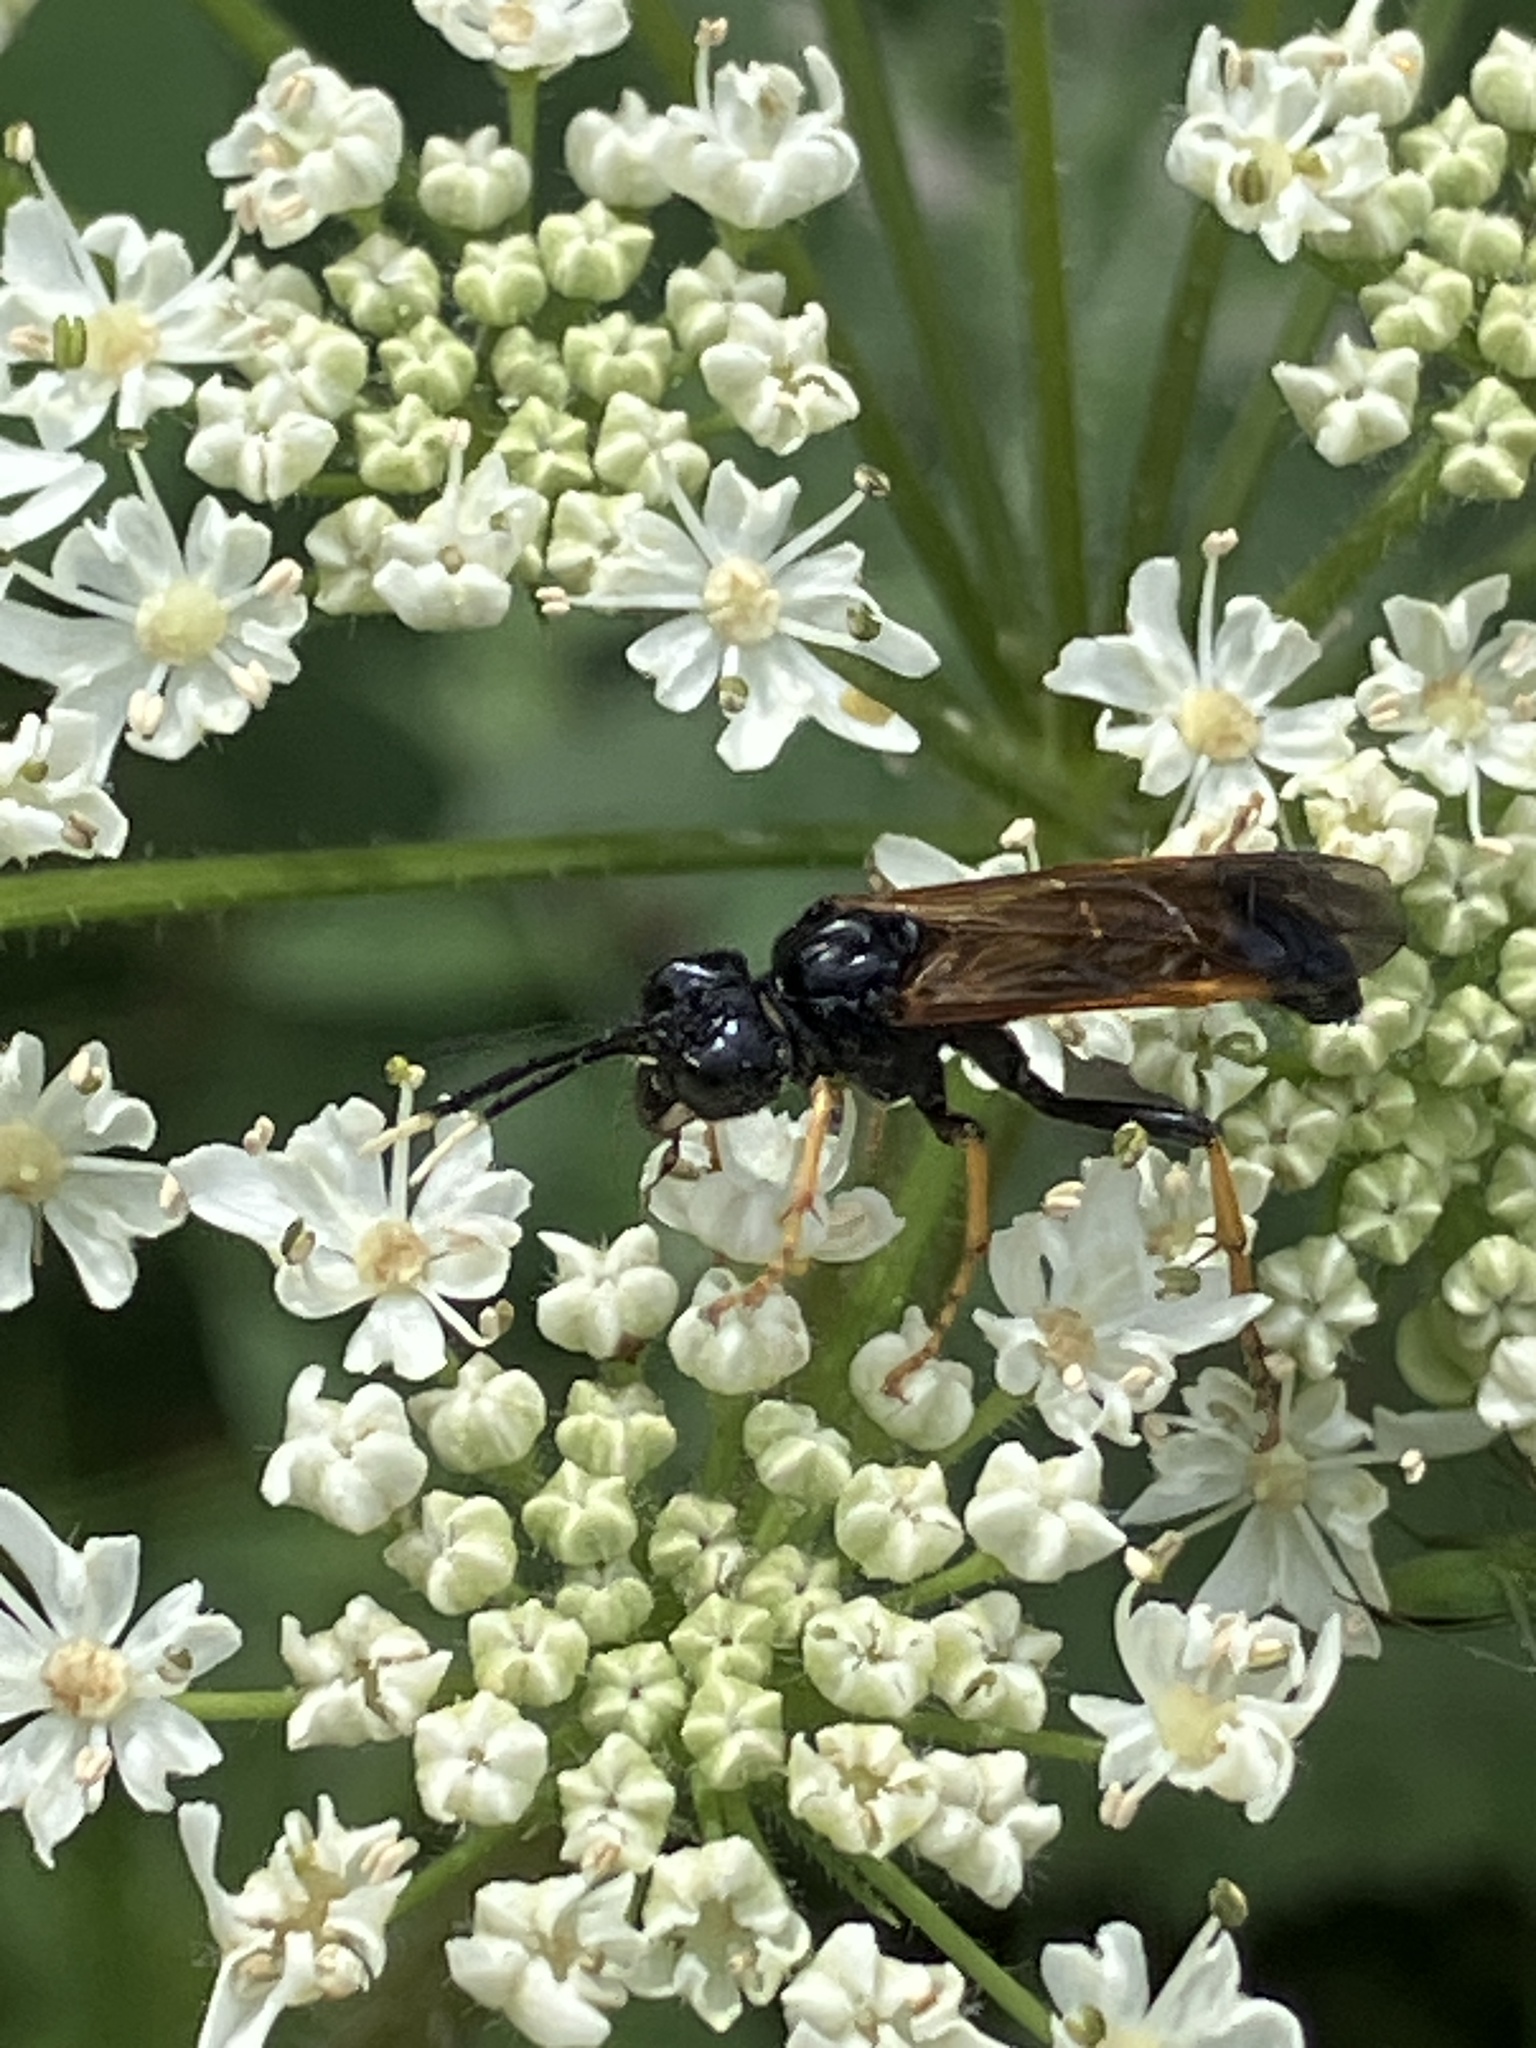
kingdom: Animalia
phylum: Arthropoda
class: Insecta
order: Hymenoptera
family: Tenthredinidae
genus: Tenthredo
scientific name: Tenthredo crassa
